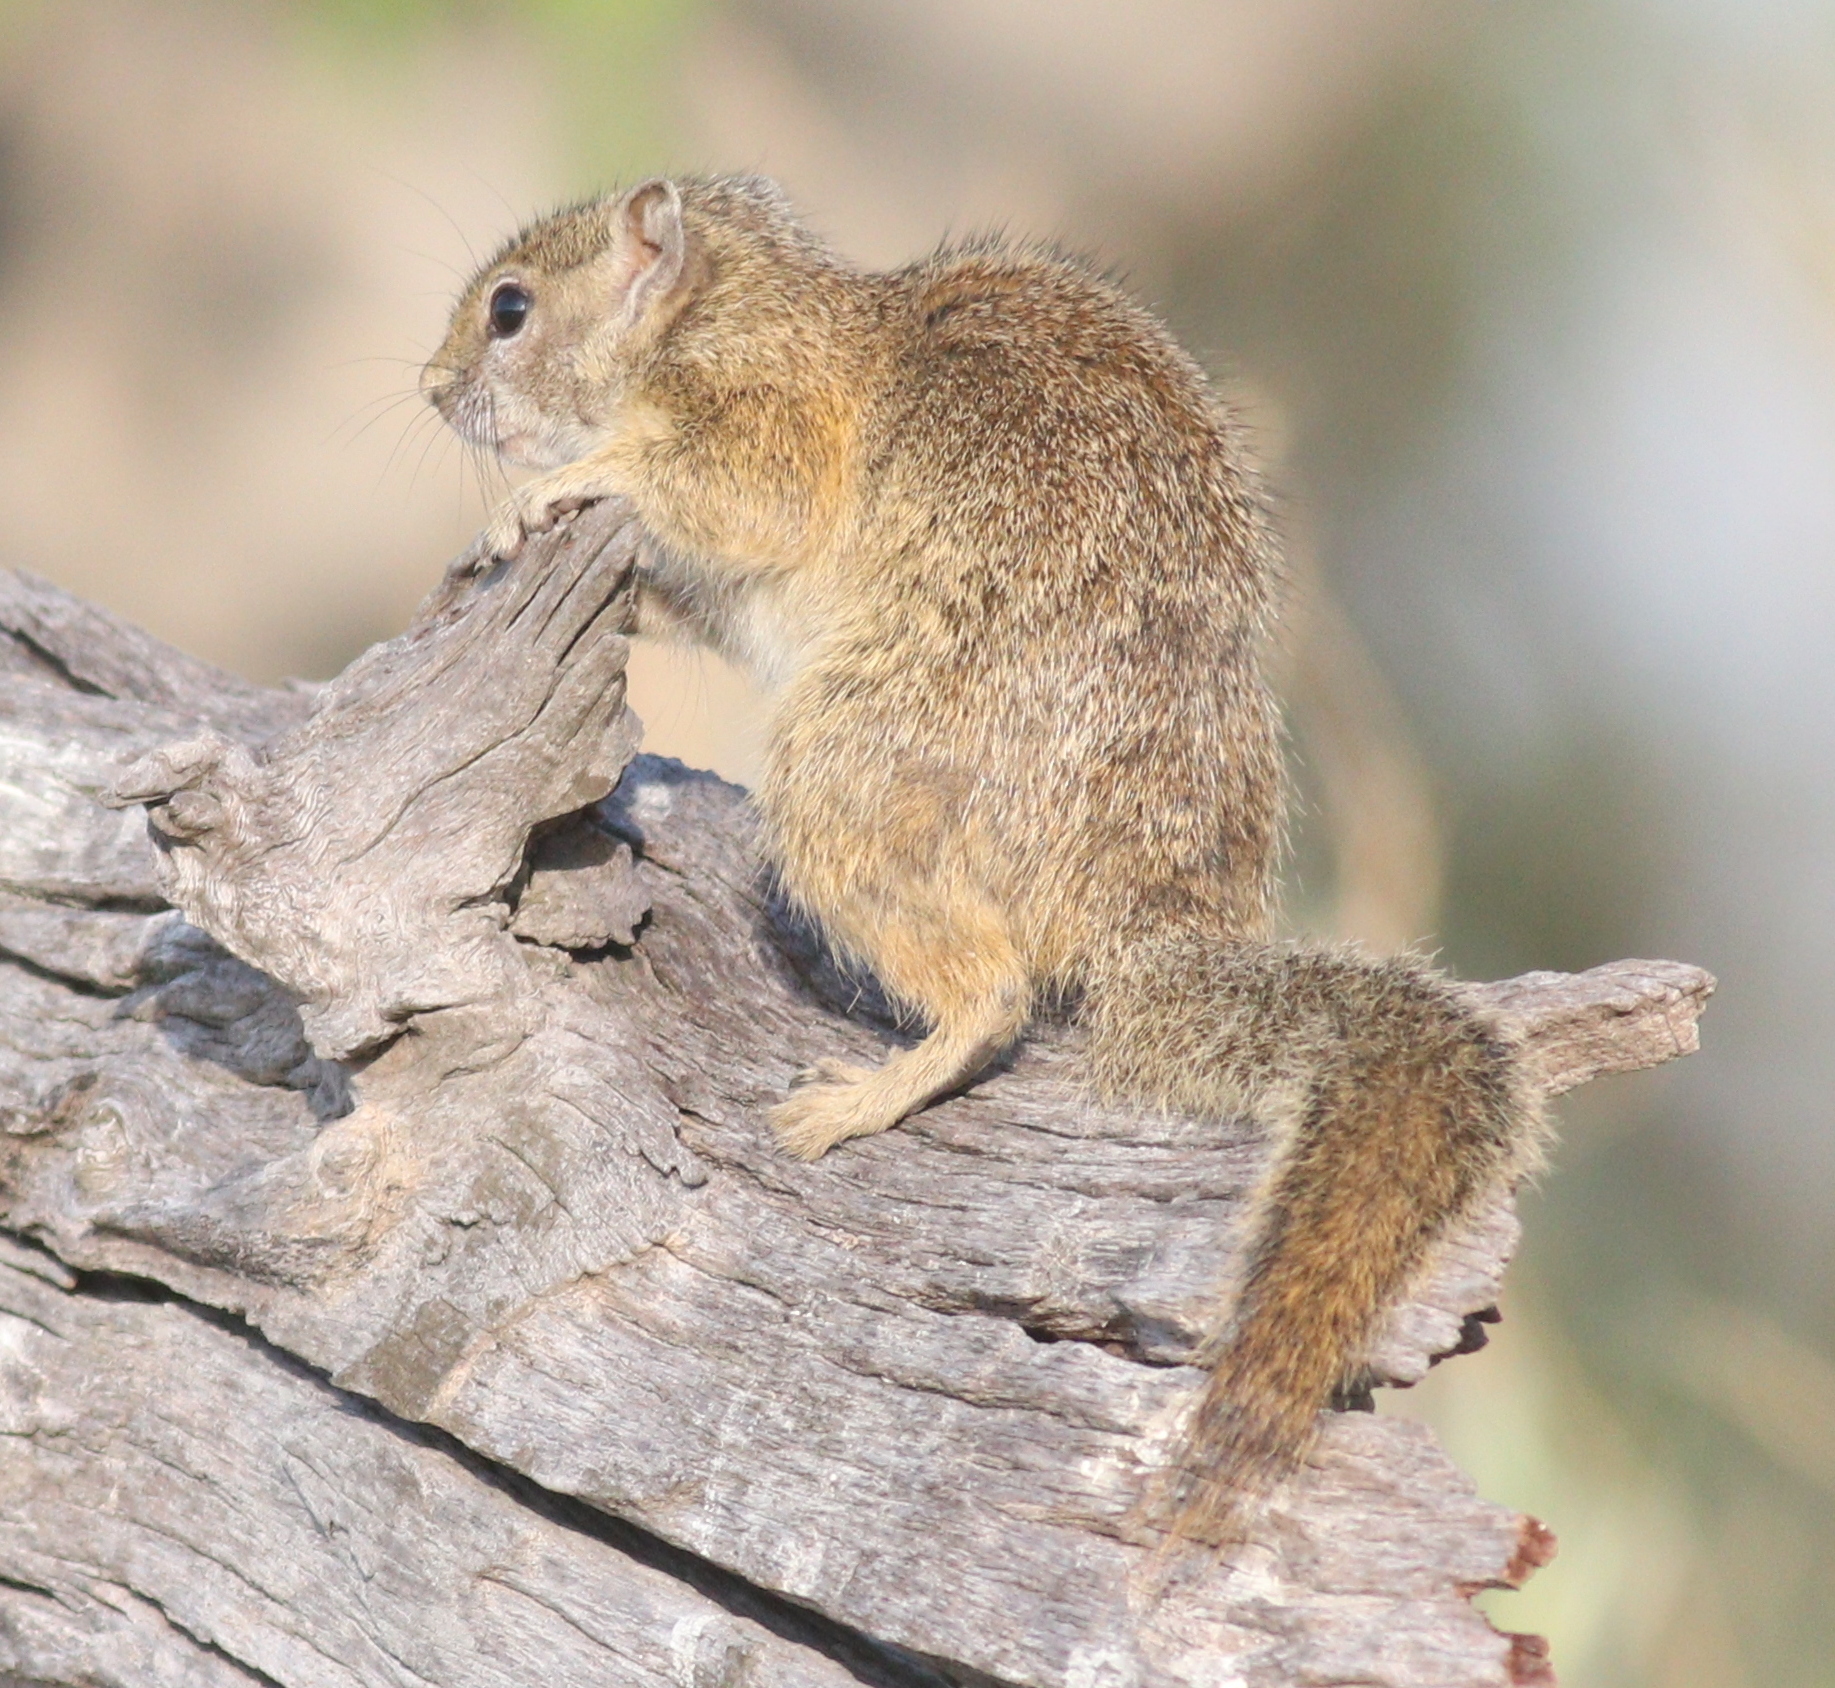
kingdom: Animalia
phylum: Chordata
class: Mammalia
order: Rodentia
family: Sciuridae
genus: Paraxerus
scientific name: Paraxerus cepapi
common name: Smith's bush squirrel
